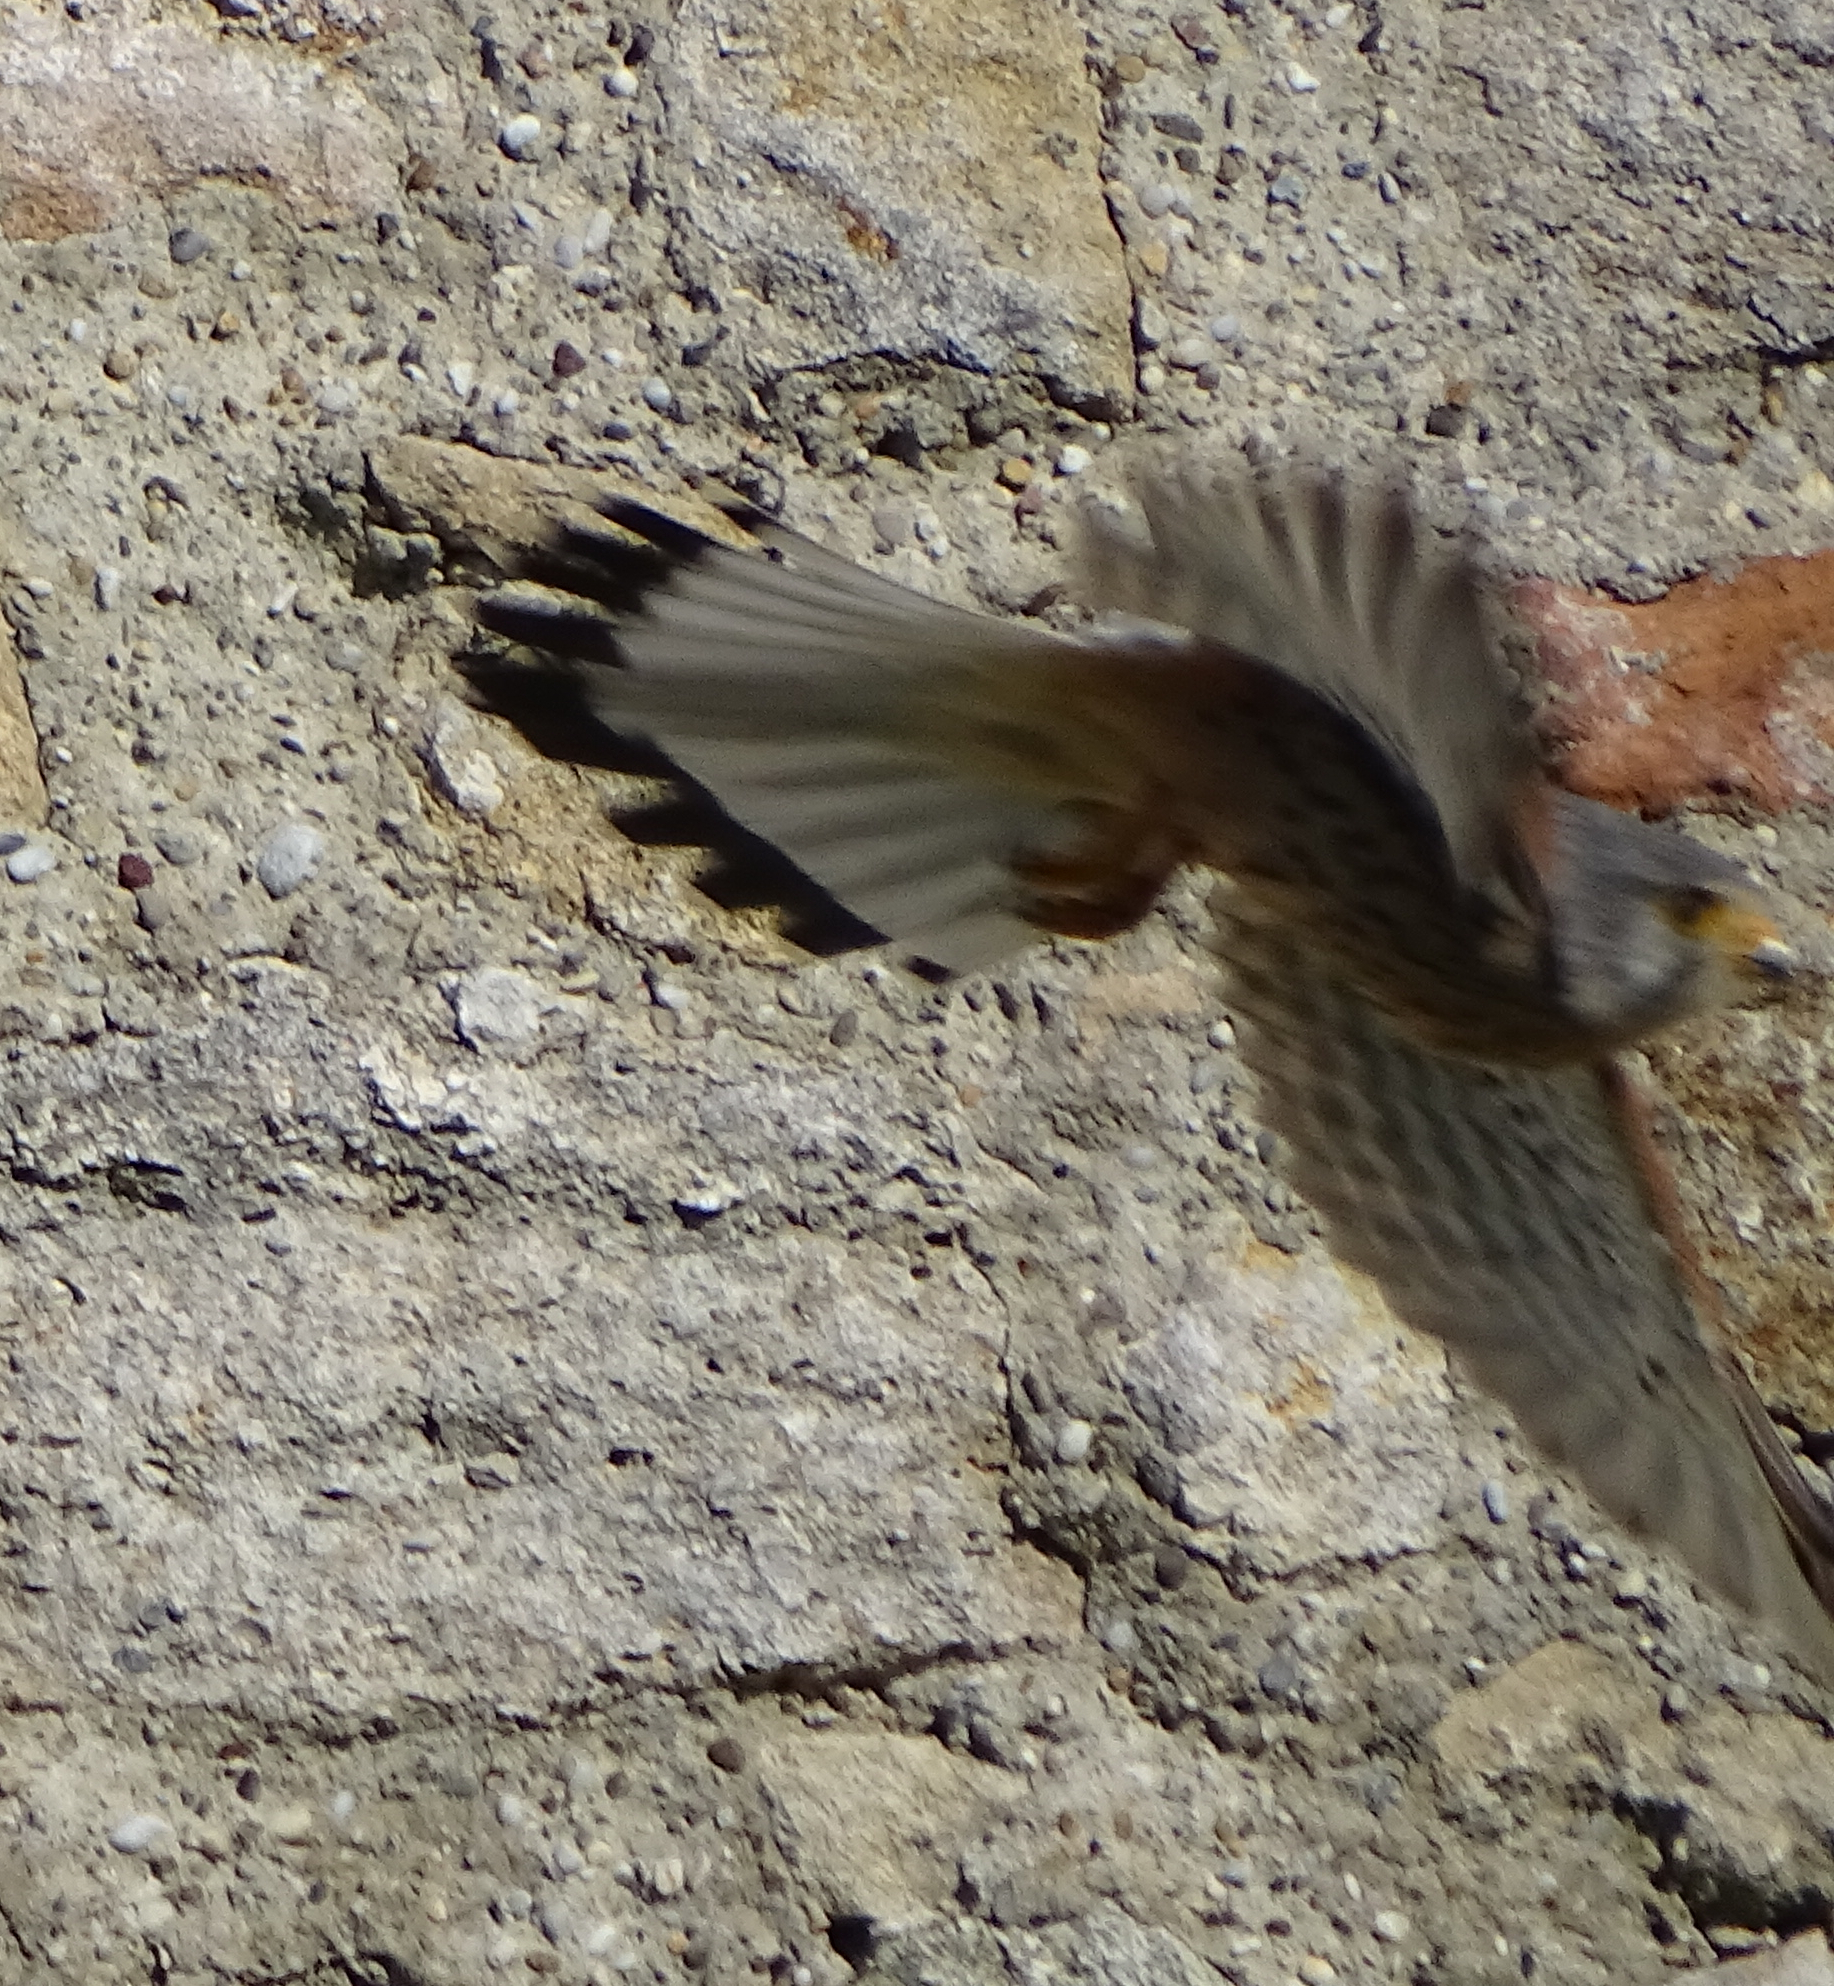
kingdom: Animalia
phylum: Chordata
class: Aves
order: Falconiformes
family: Falconidae
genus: Falco
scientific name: Falco tinnunculus
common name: Common kestrel
